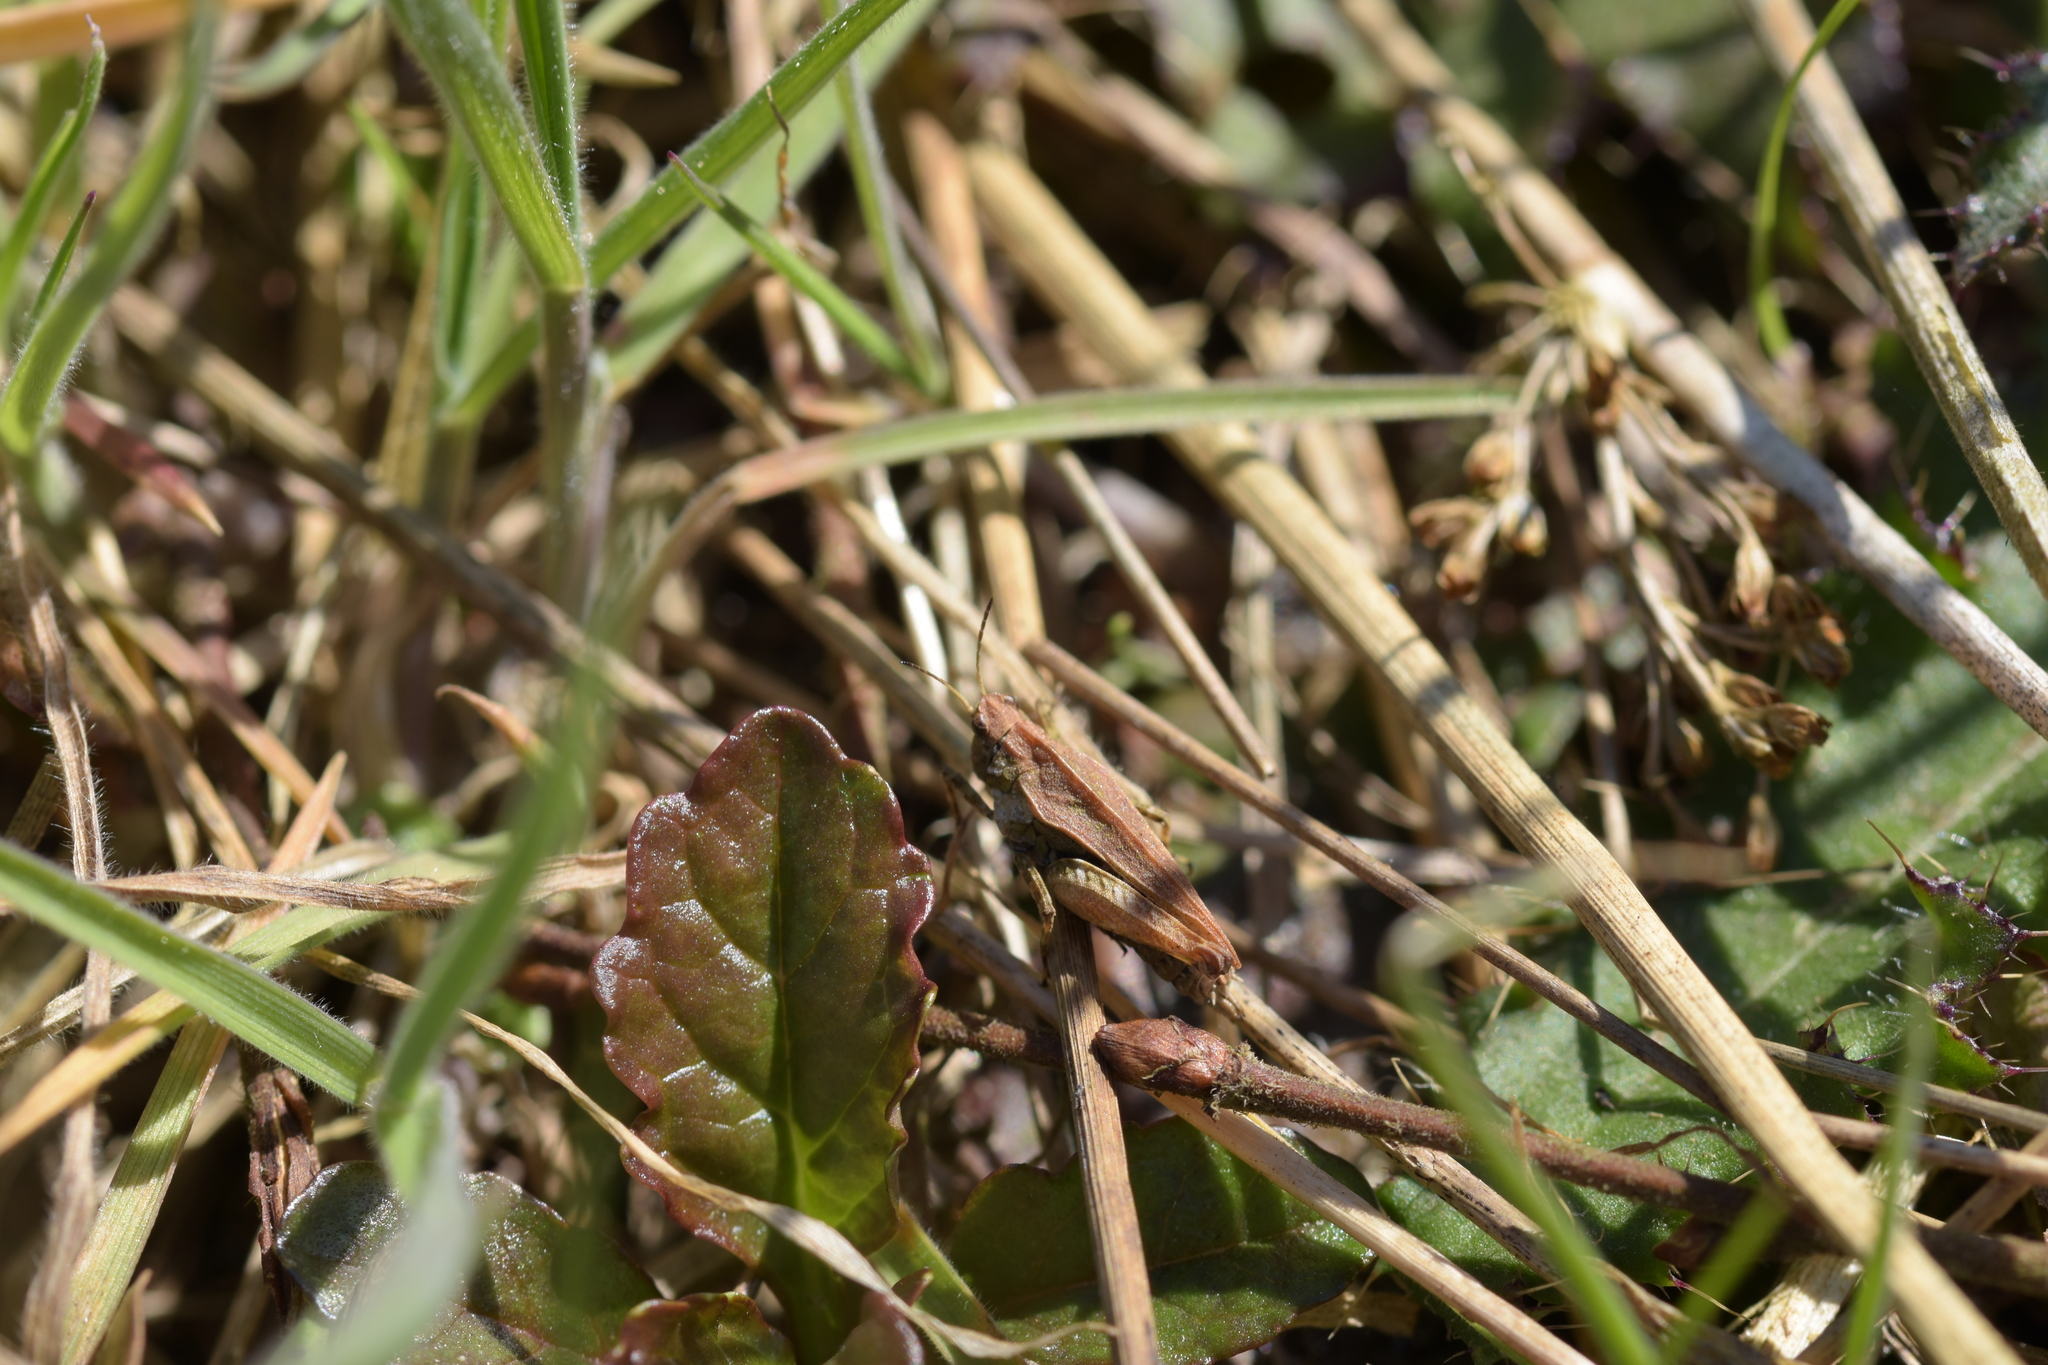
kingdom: Animalia
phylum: Arthropoda
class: Insecta
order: Orthoptera
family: Tetrigidae
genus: Tetrix
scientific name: Tetrix undulata
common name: Common groundhopper
